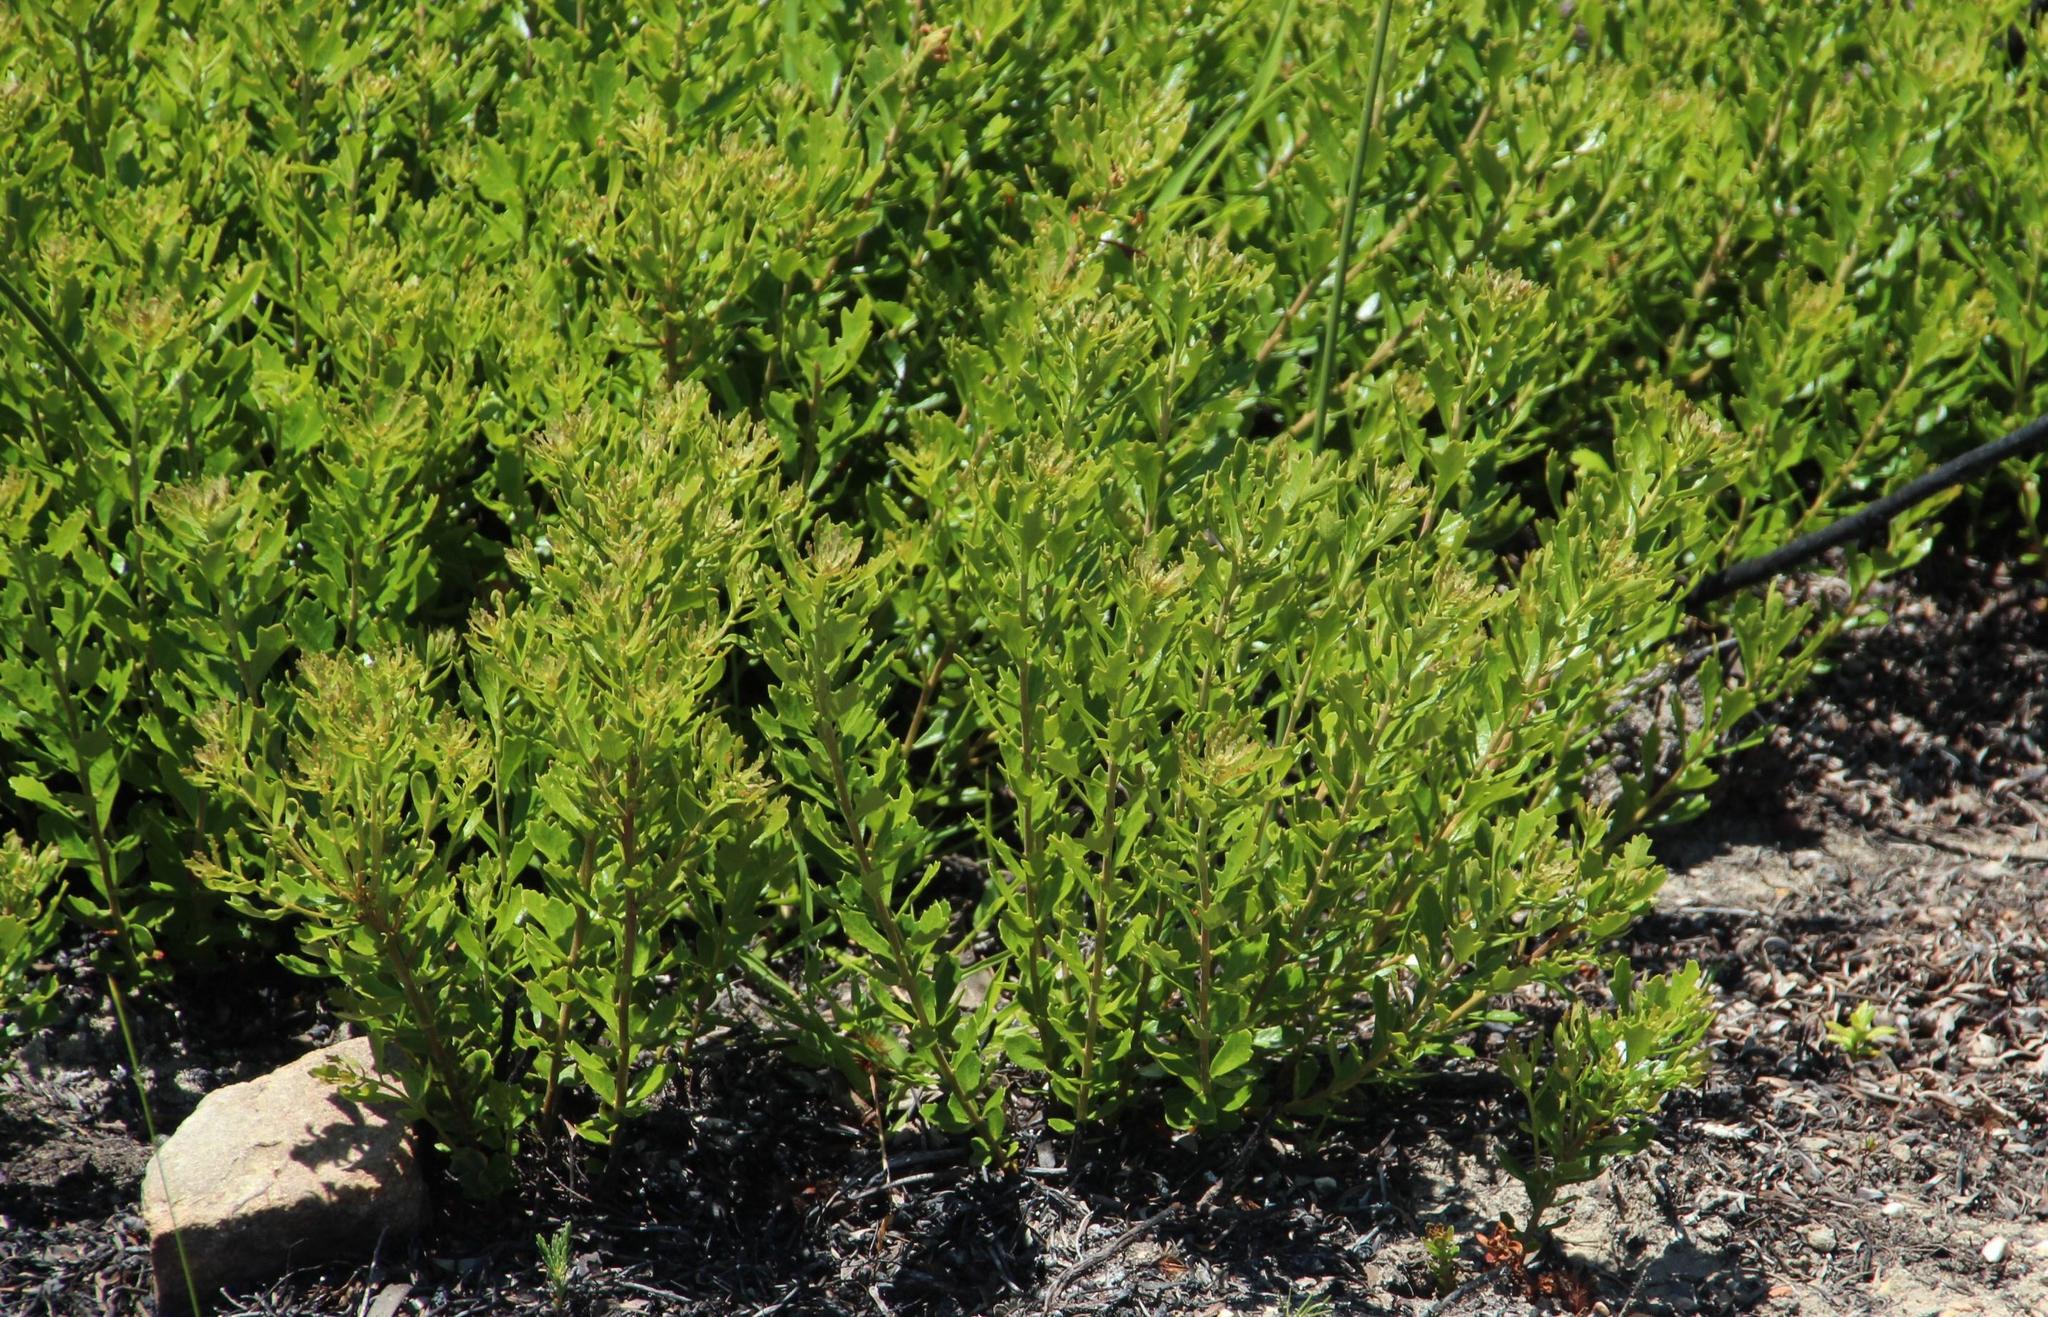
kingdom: Plantae
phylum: Tracheophyta
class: Magnoliopsida
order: Fagales
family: Myricaceae
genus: Morella
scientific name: Morella quercifolia
